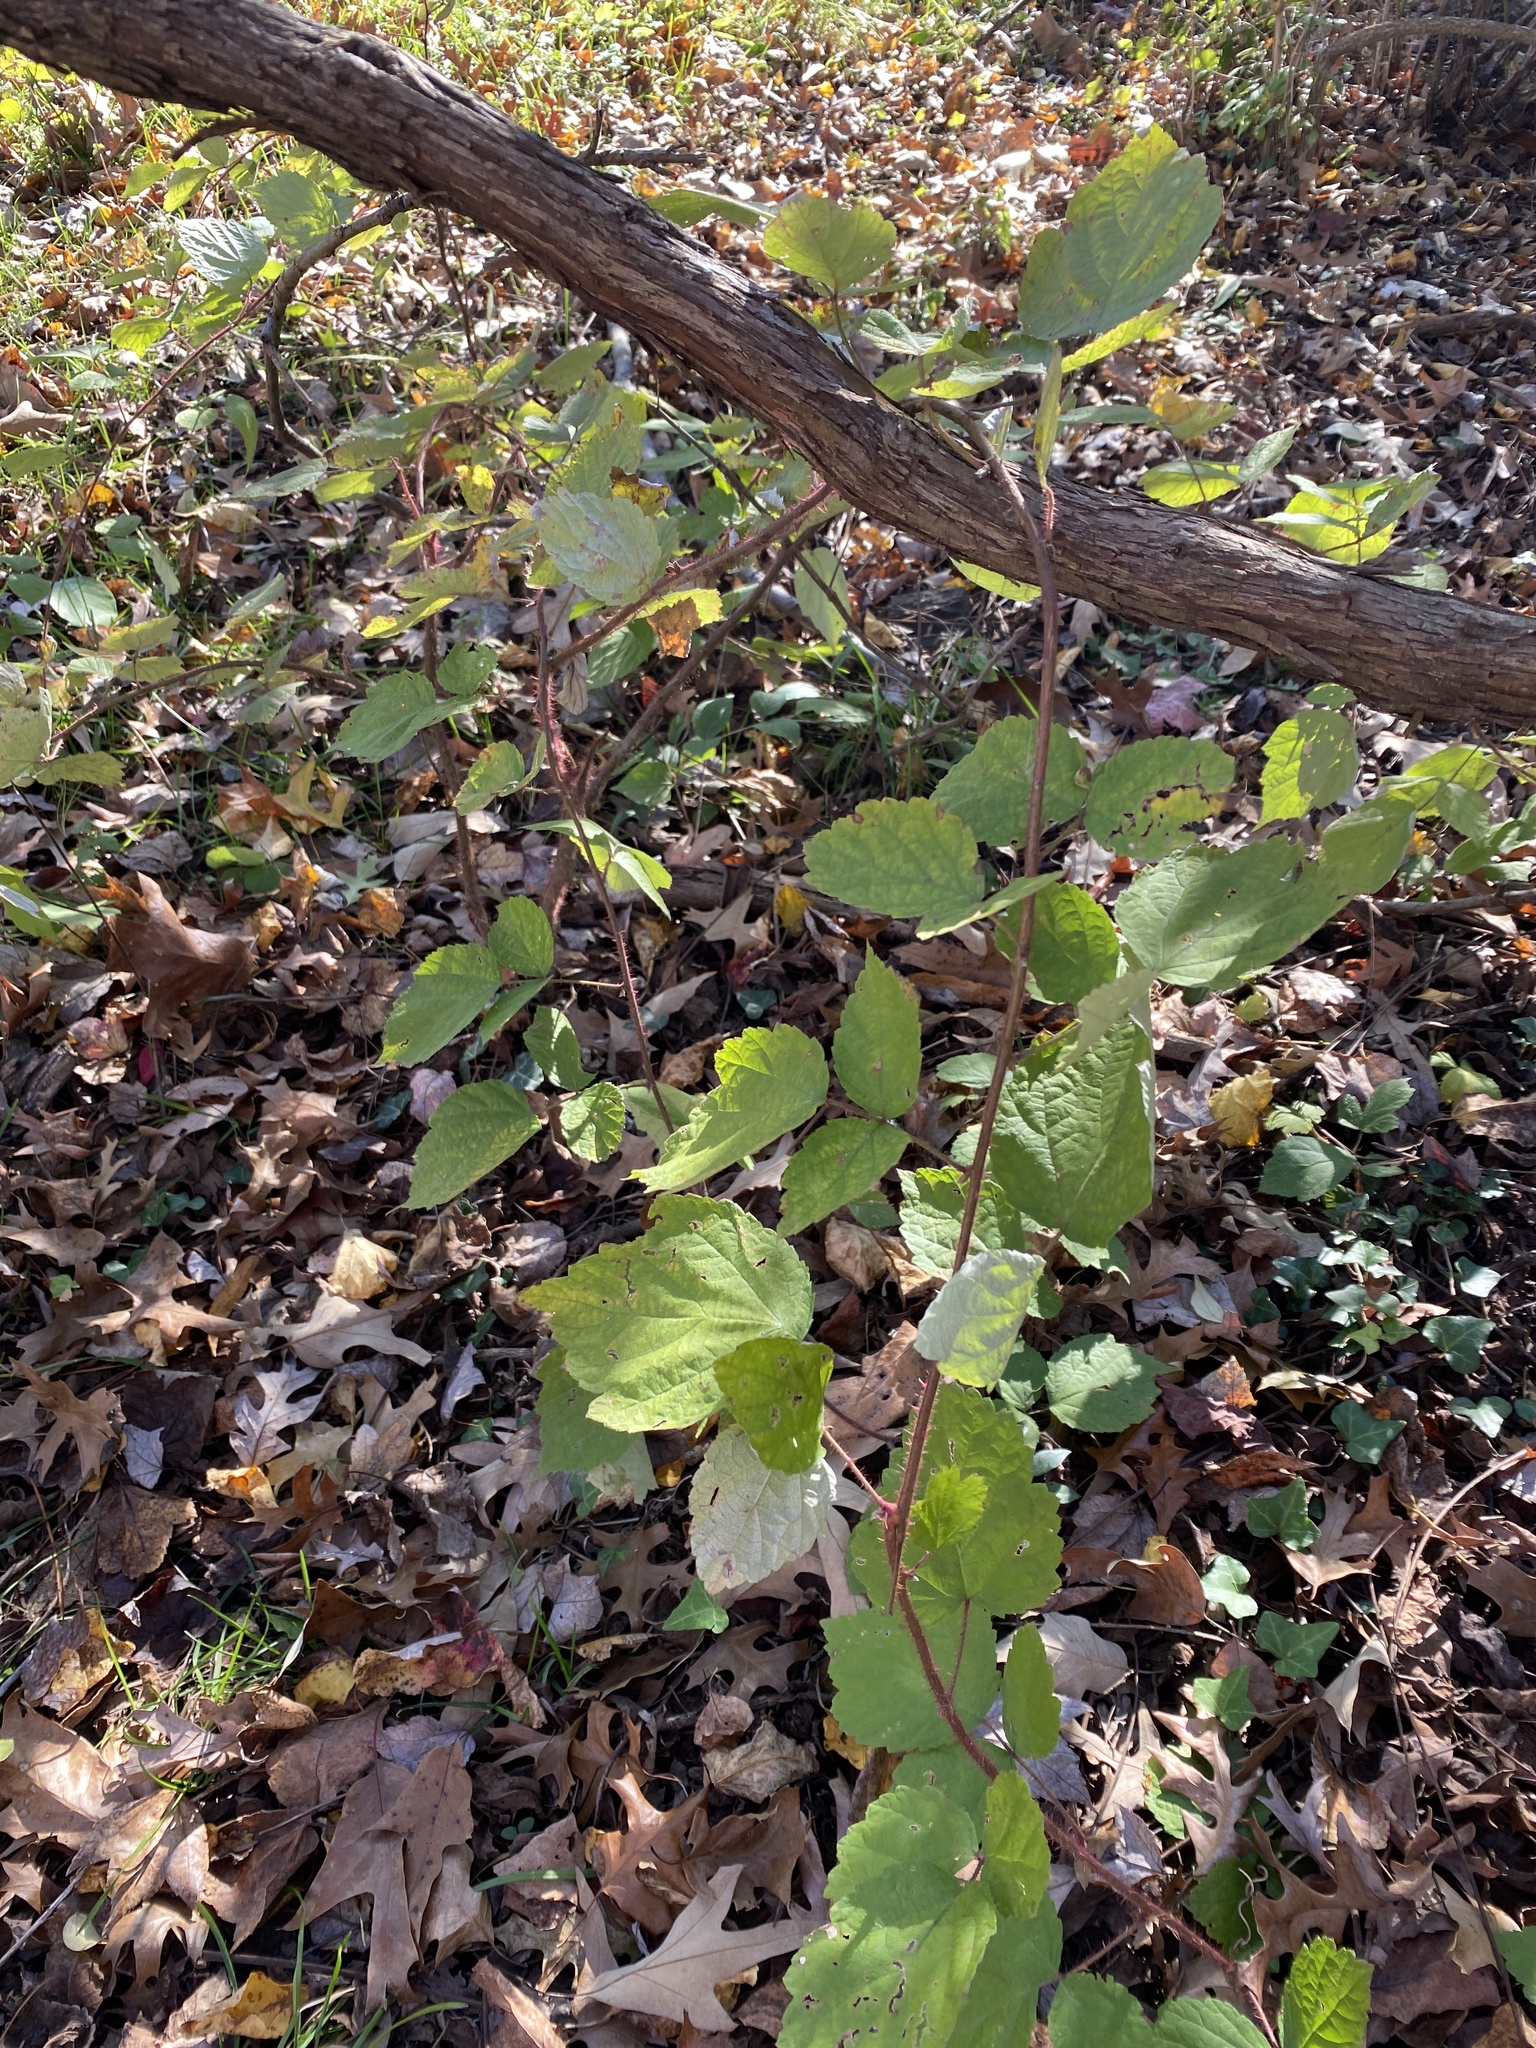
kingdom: Plantae
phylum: Tracheophyta
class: Magnoliopsida
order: Rosales
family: Rosaceae
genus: Rubus
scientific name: Rubus phoenicolasius
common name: Japanese wineberry
